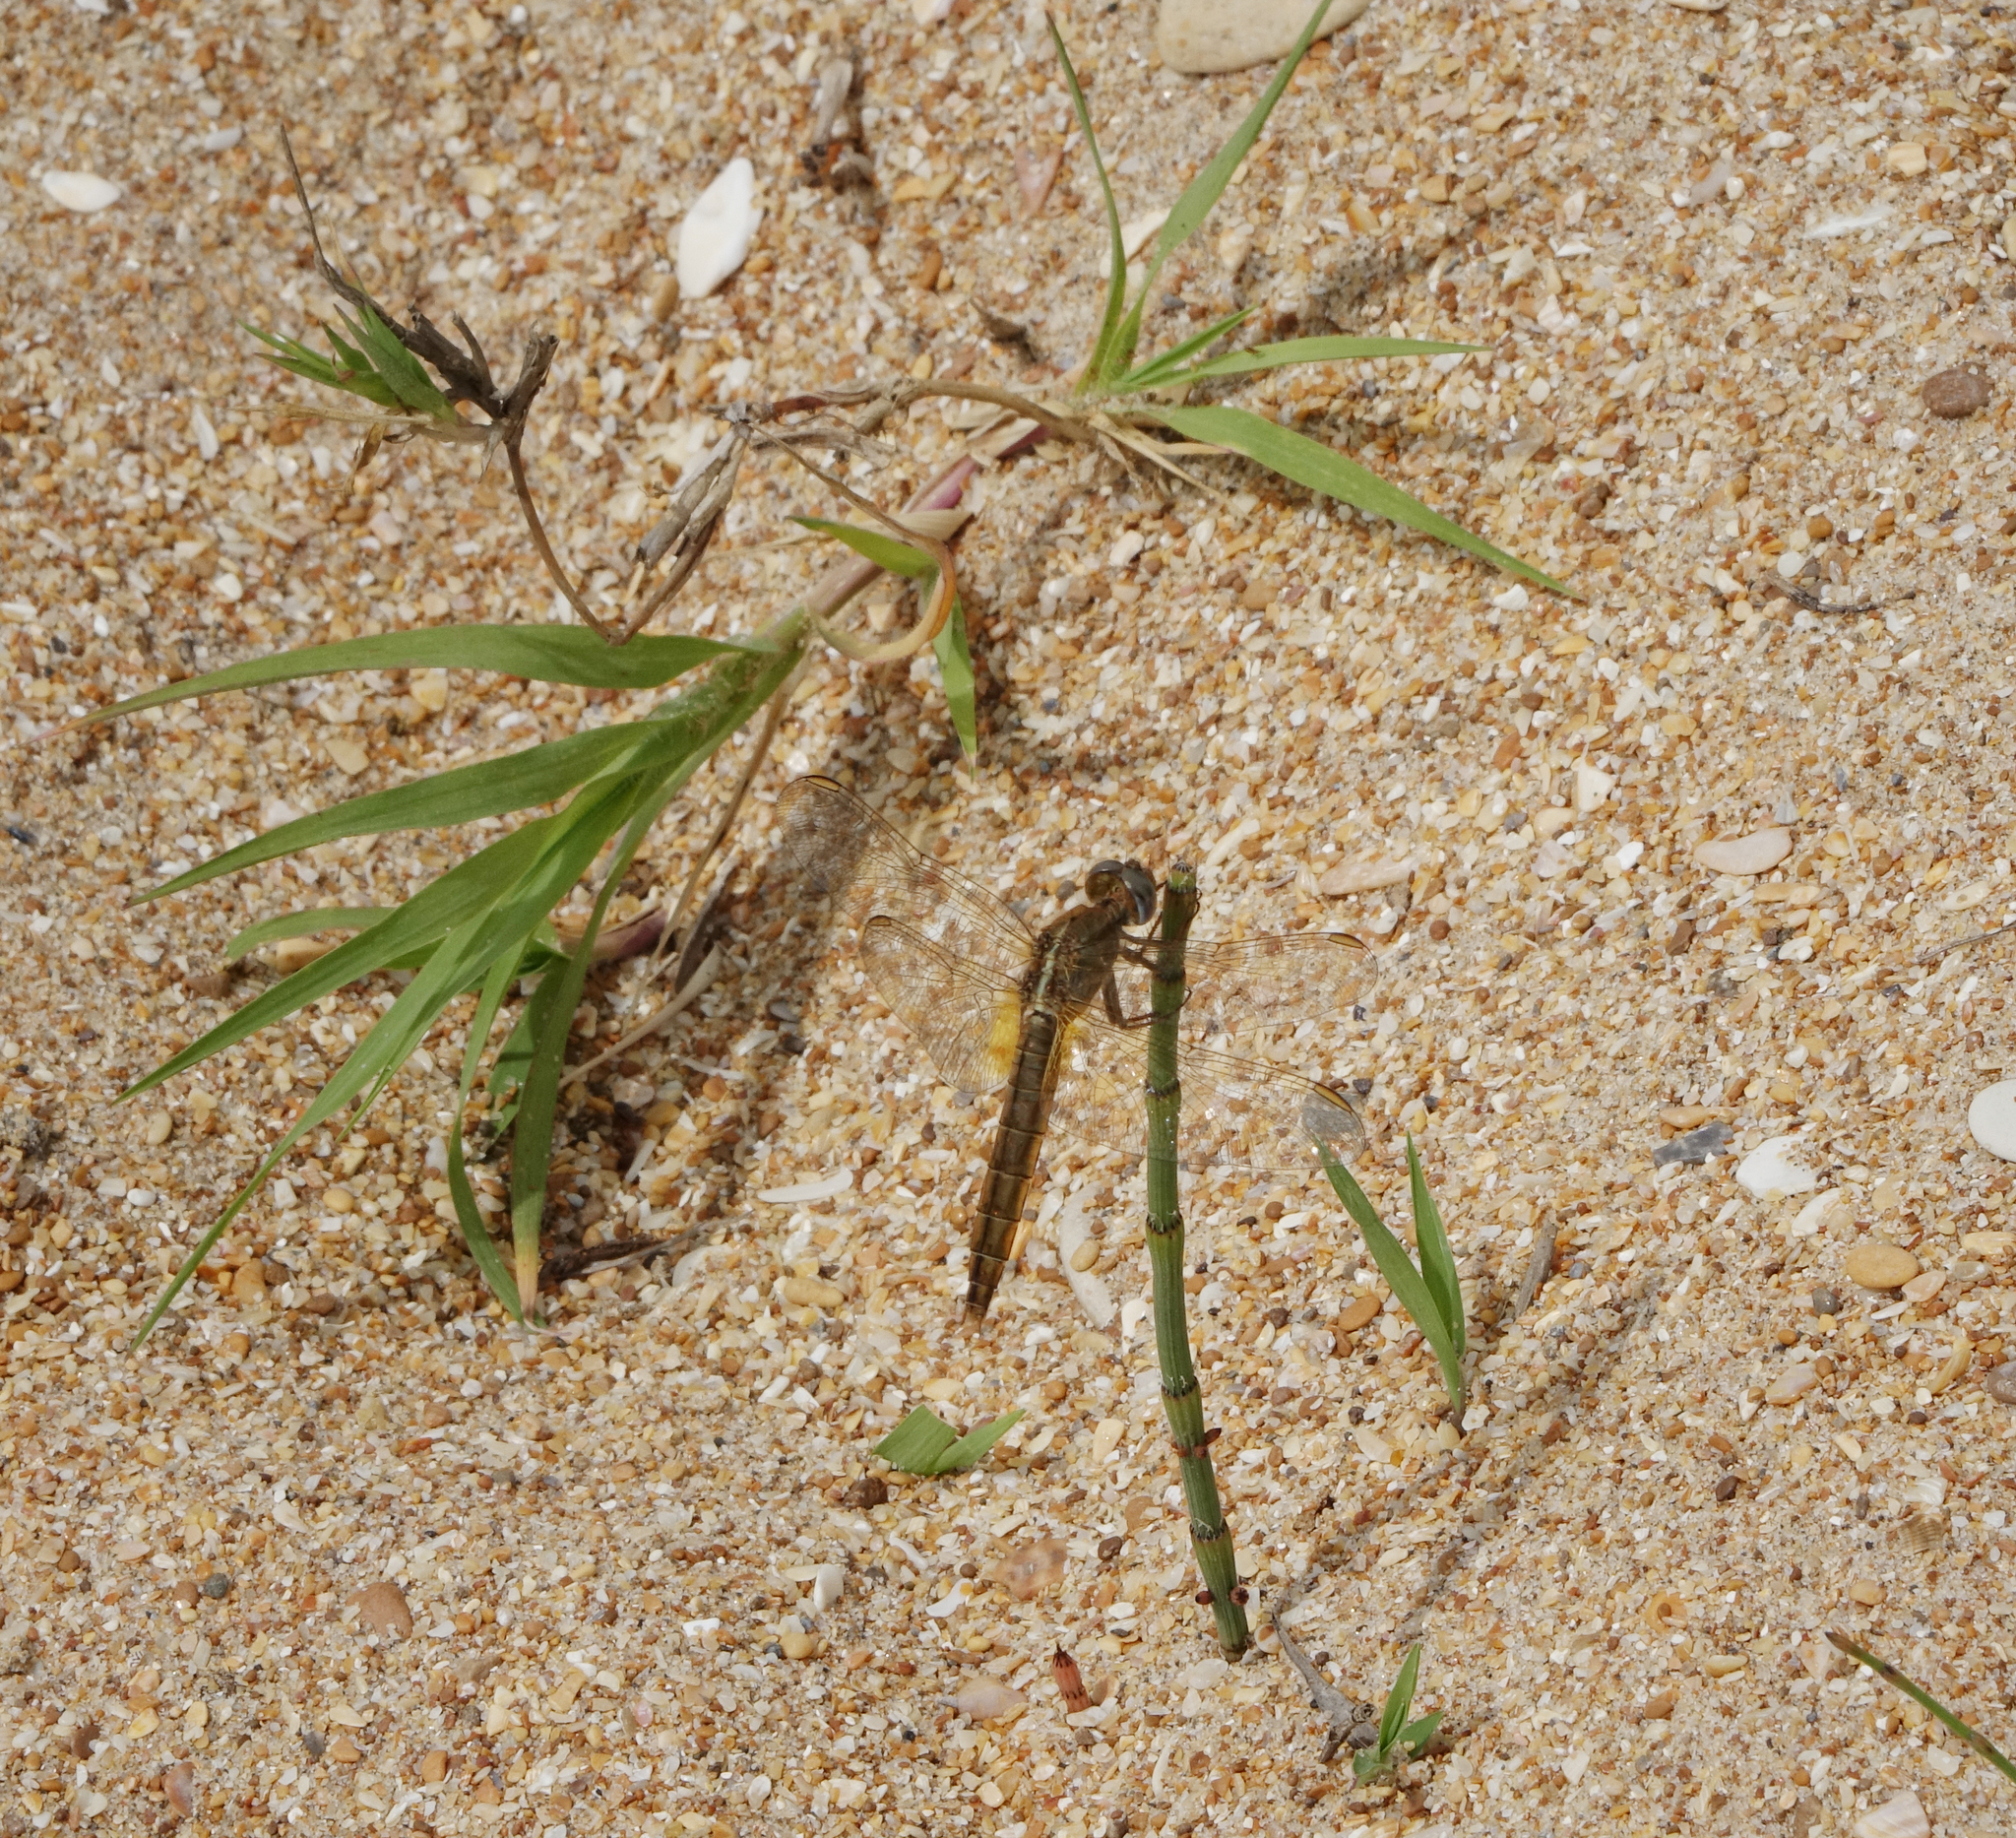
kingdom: Animalia
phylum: Arthropoda
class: Insecta
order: Odonata
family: Libellulidae
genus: Crocothemis
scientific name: Crocothemis erythraea
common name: Scarlet dragonfly
